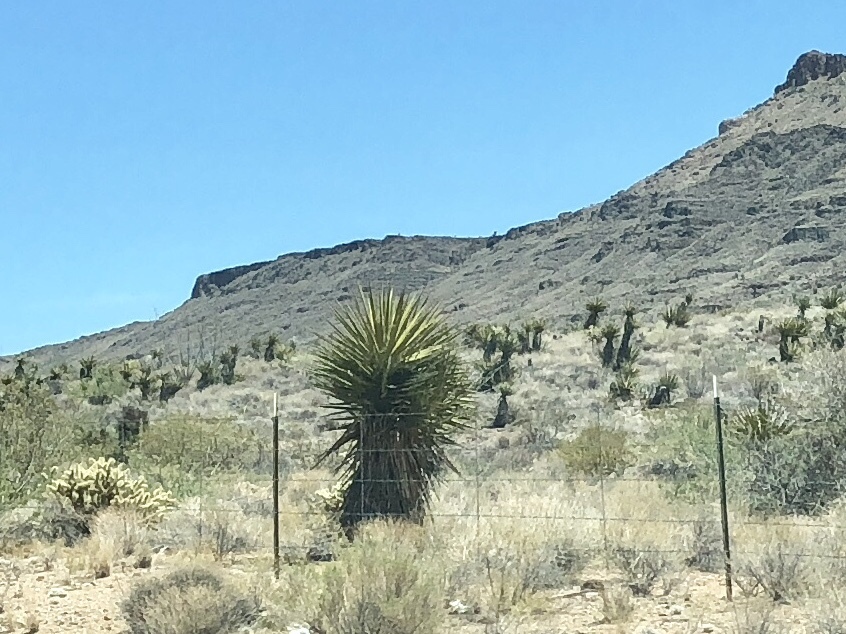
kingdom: Plantae
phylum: Tracheophyta
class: Liliopsida
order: Asparagales
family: Asparagaceae
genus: Yucca
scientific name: Yucca schidigera
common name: Mojave yucca
